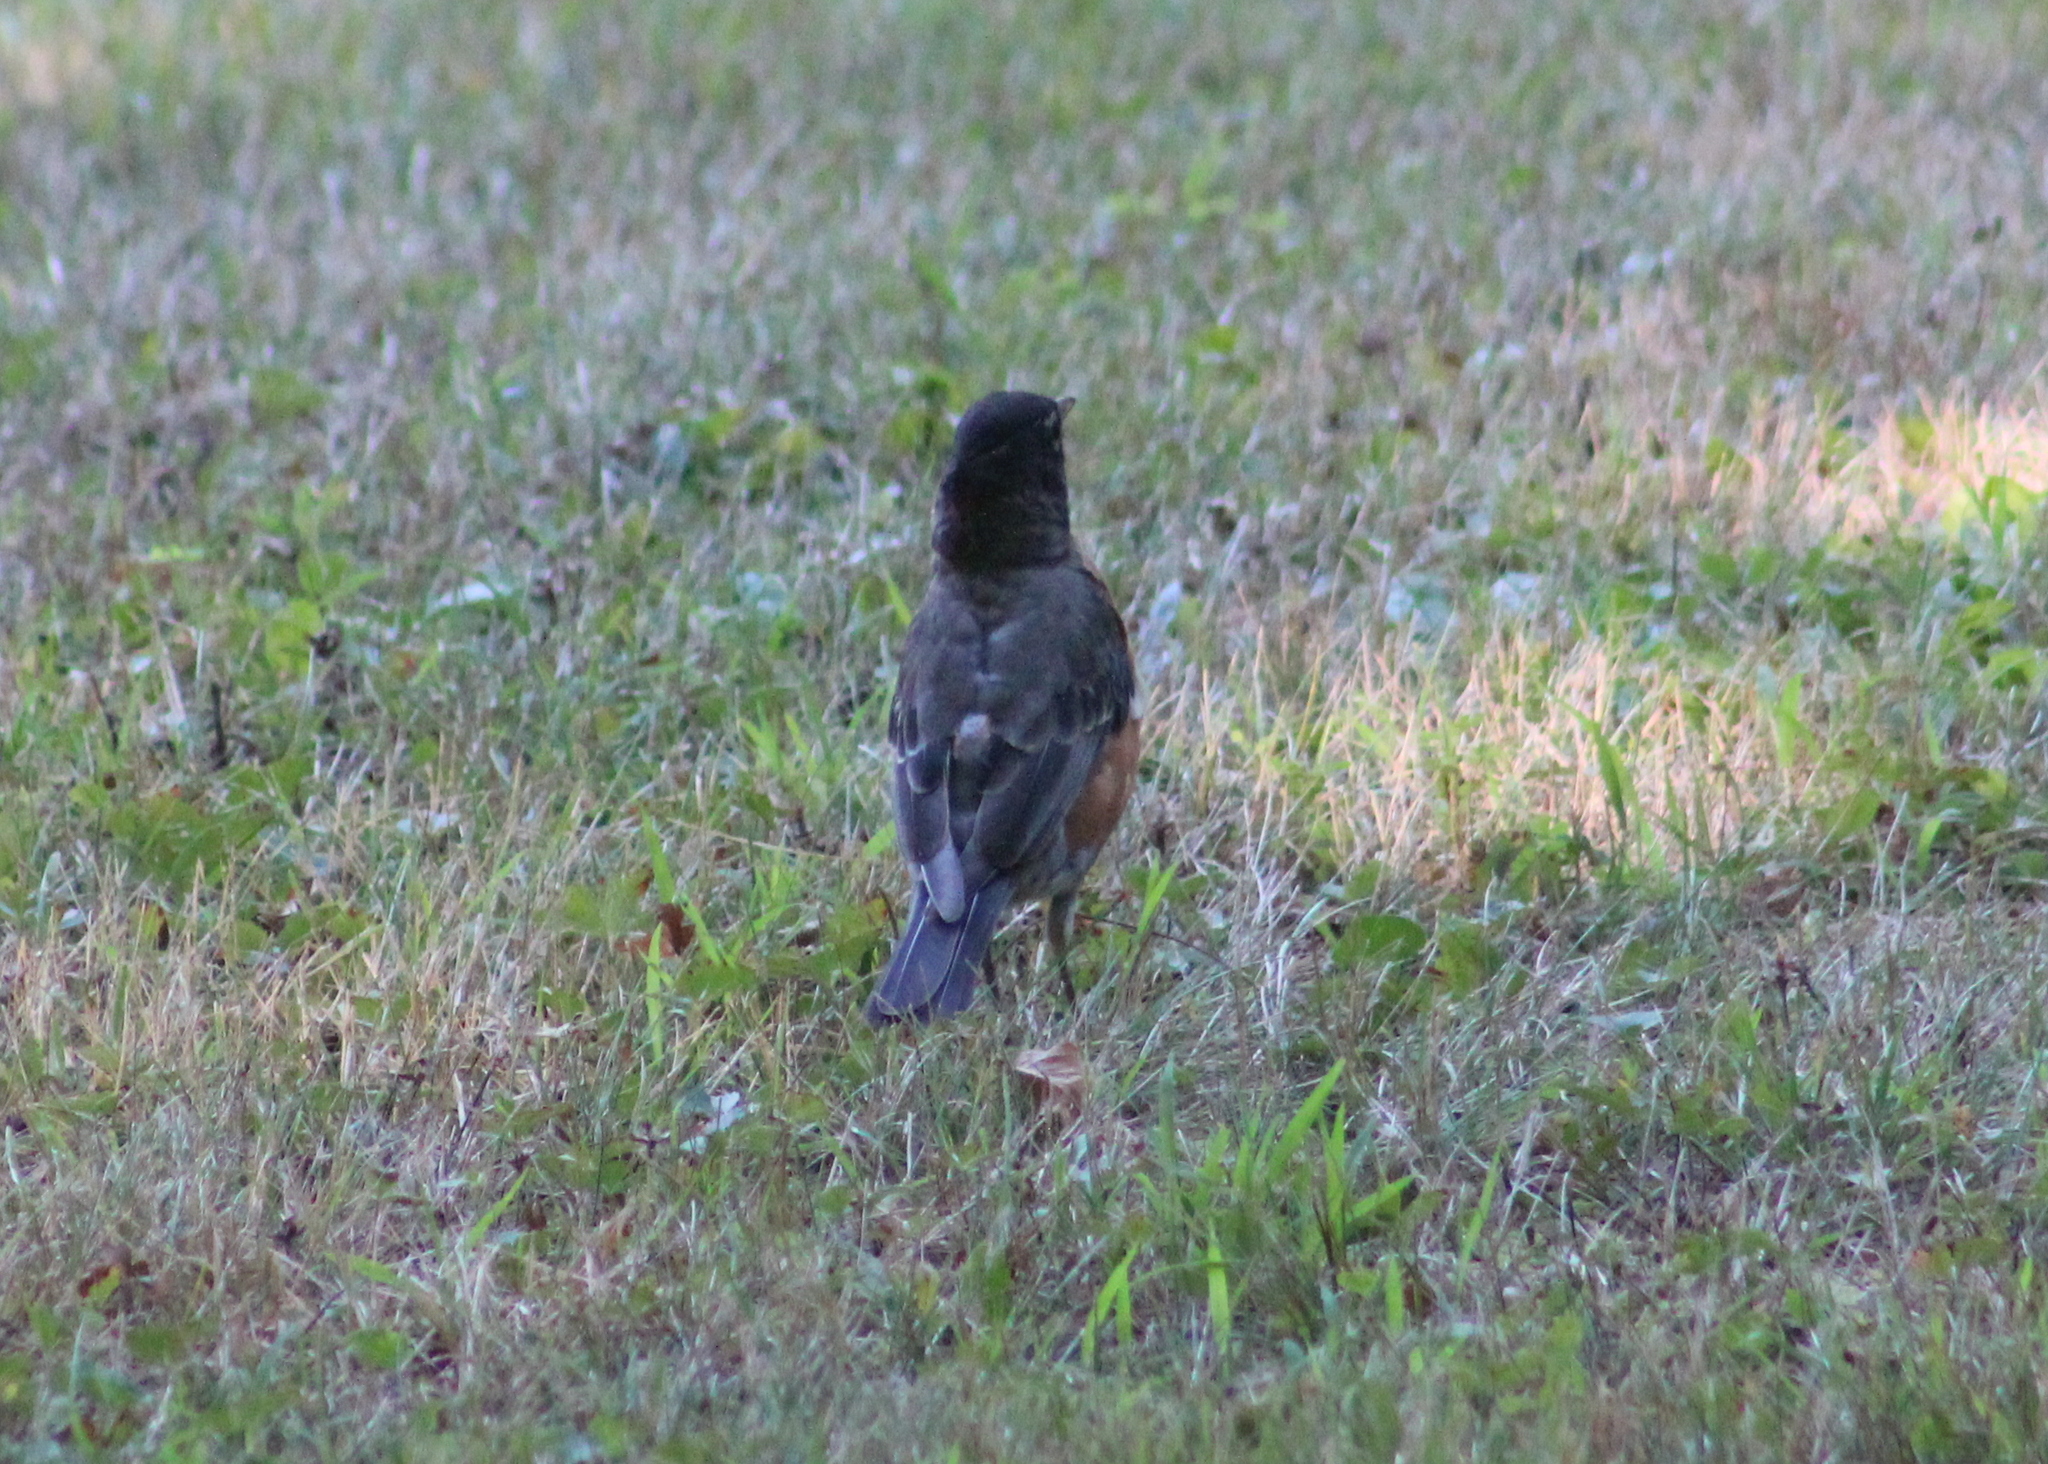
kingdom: Animalia
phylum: Chordata
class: Aves
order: Passeriformes
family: Turdidae
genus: Turdus
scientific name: Turdus migratorius
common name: American robin
